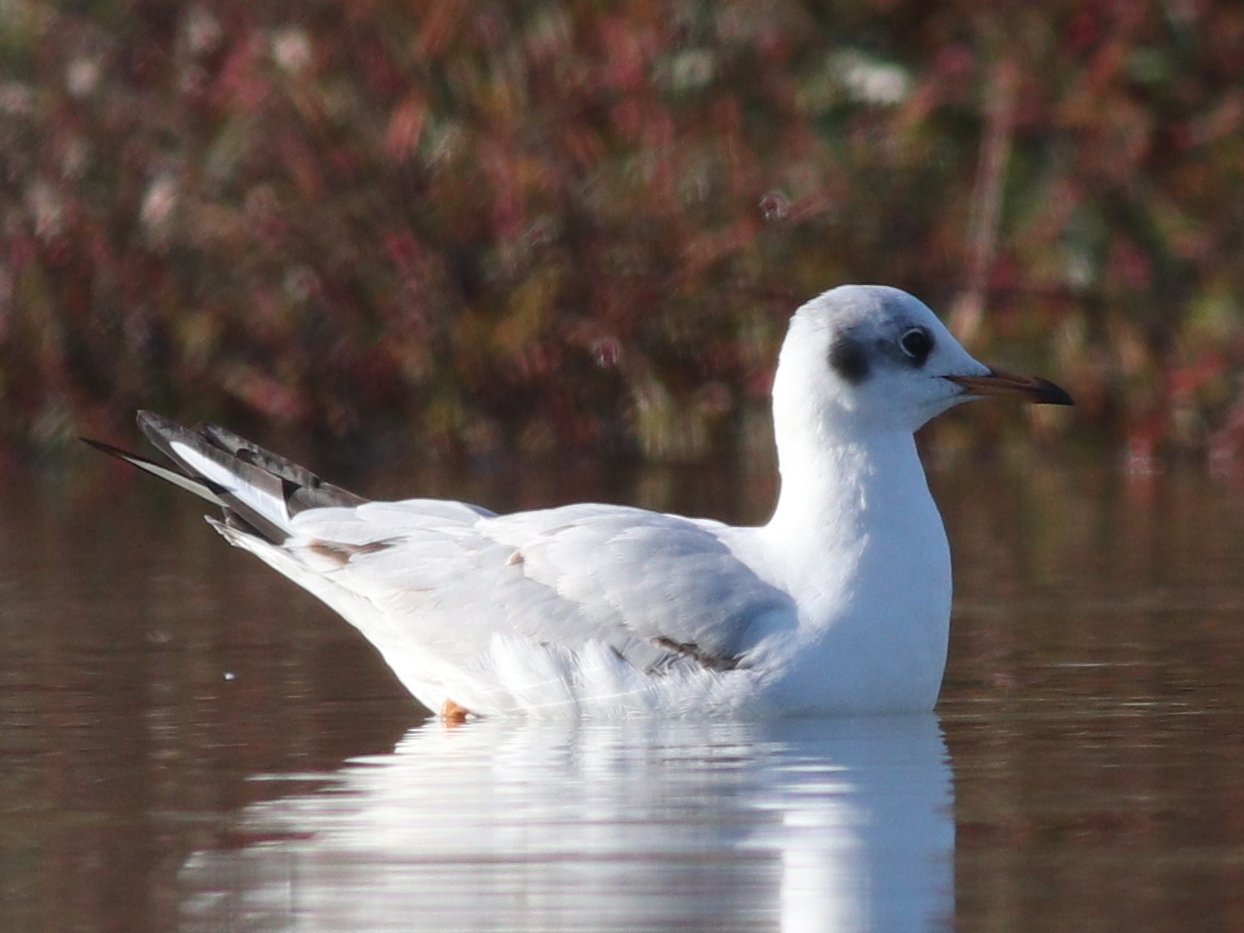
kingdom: Animalia
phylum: Chordata
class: Aves
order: Charadriiformes
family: Laridae
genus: Chroicocephalus
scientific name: Chroicocephalus ridibundus
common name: Black-headed gull
